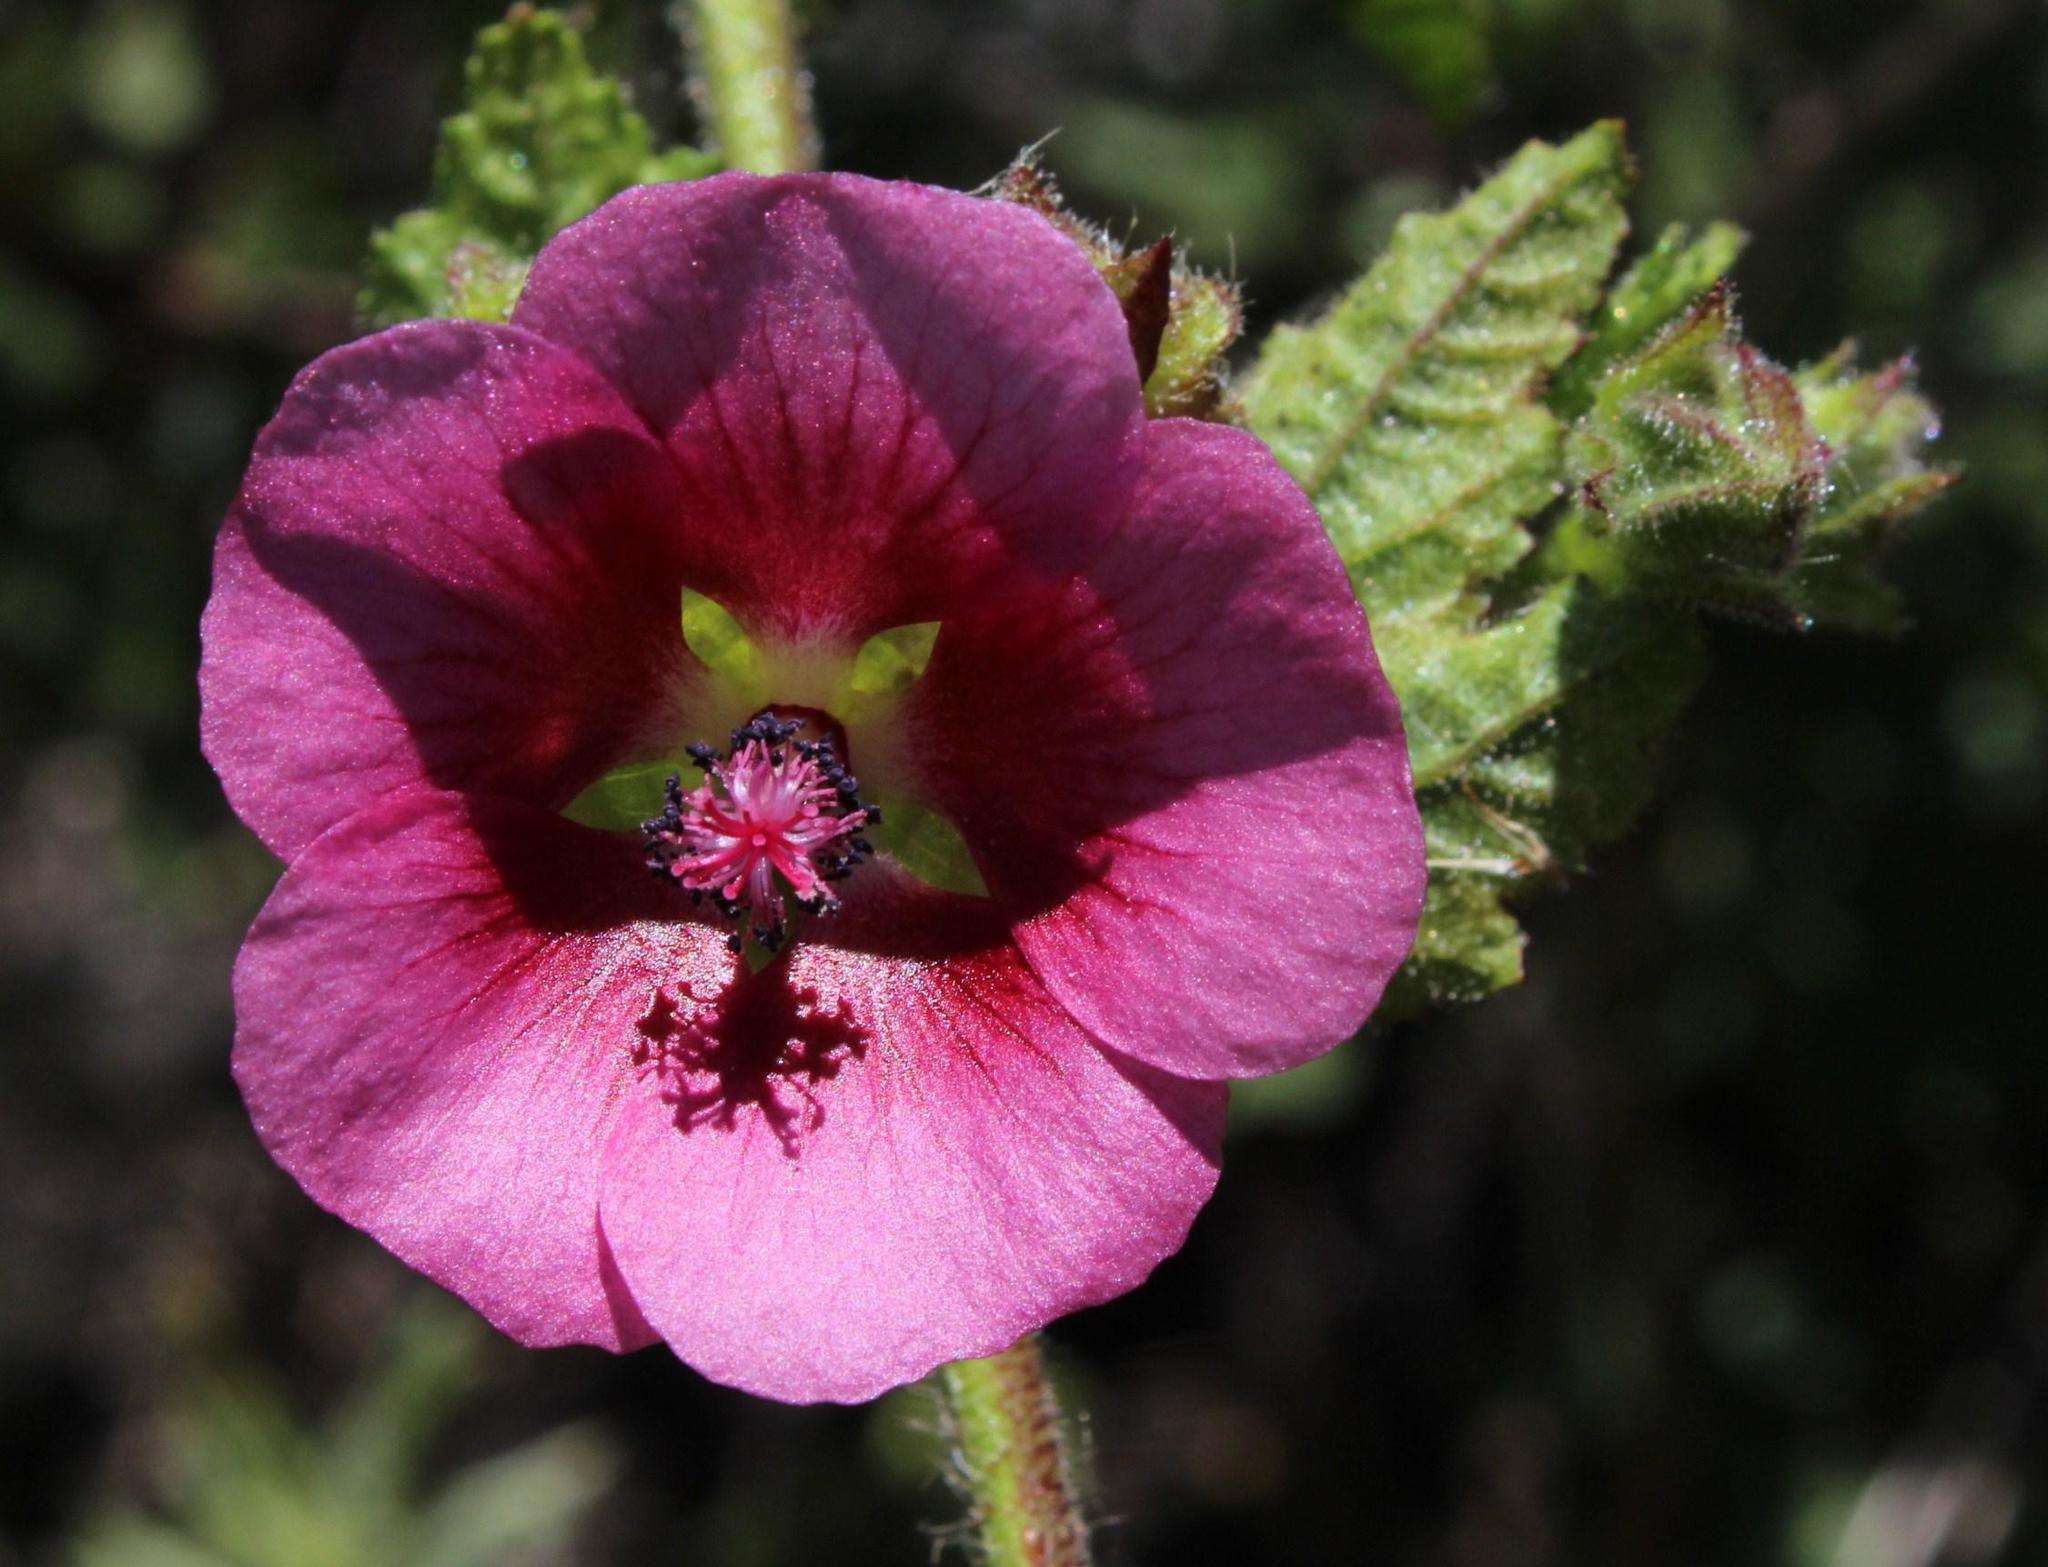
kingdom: Plantae
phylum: Tracheophyta
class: Magnoliopsida
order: Malvales
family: Malvaceae
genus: Anisodontea
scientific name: Anisodontea scabrosa
